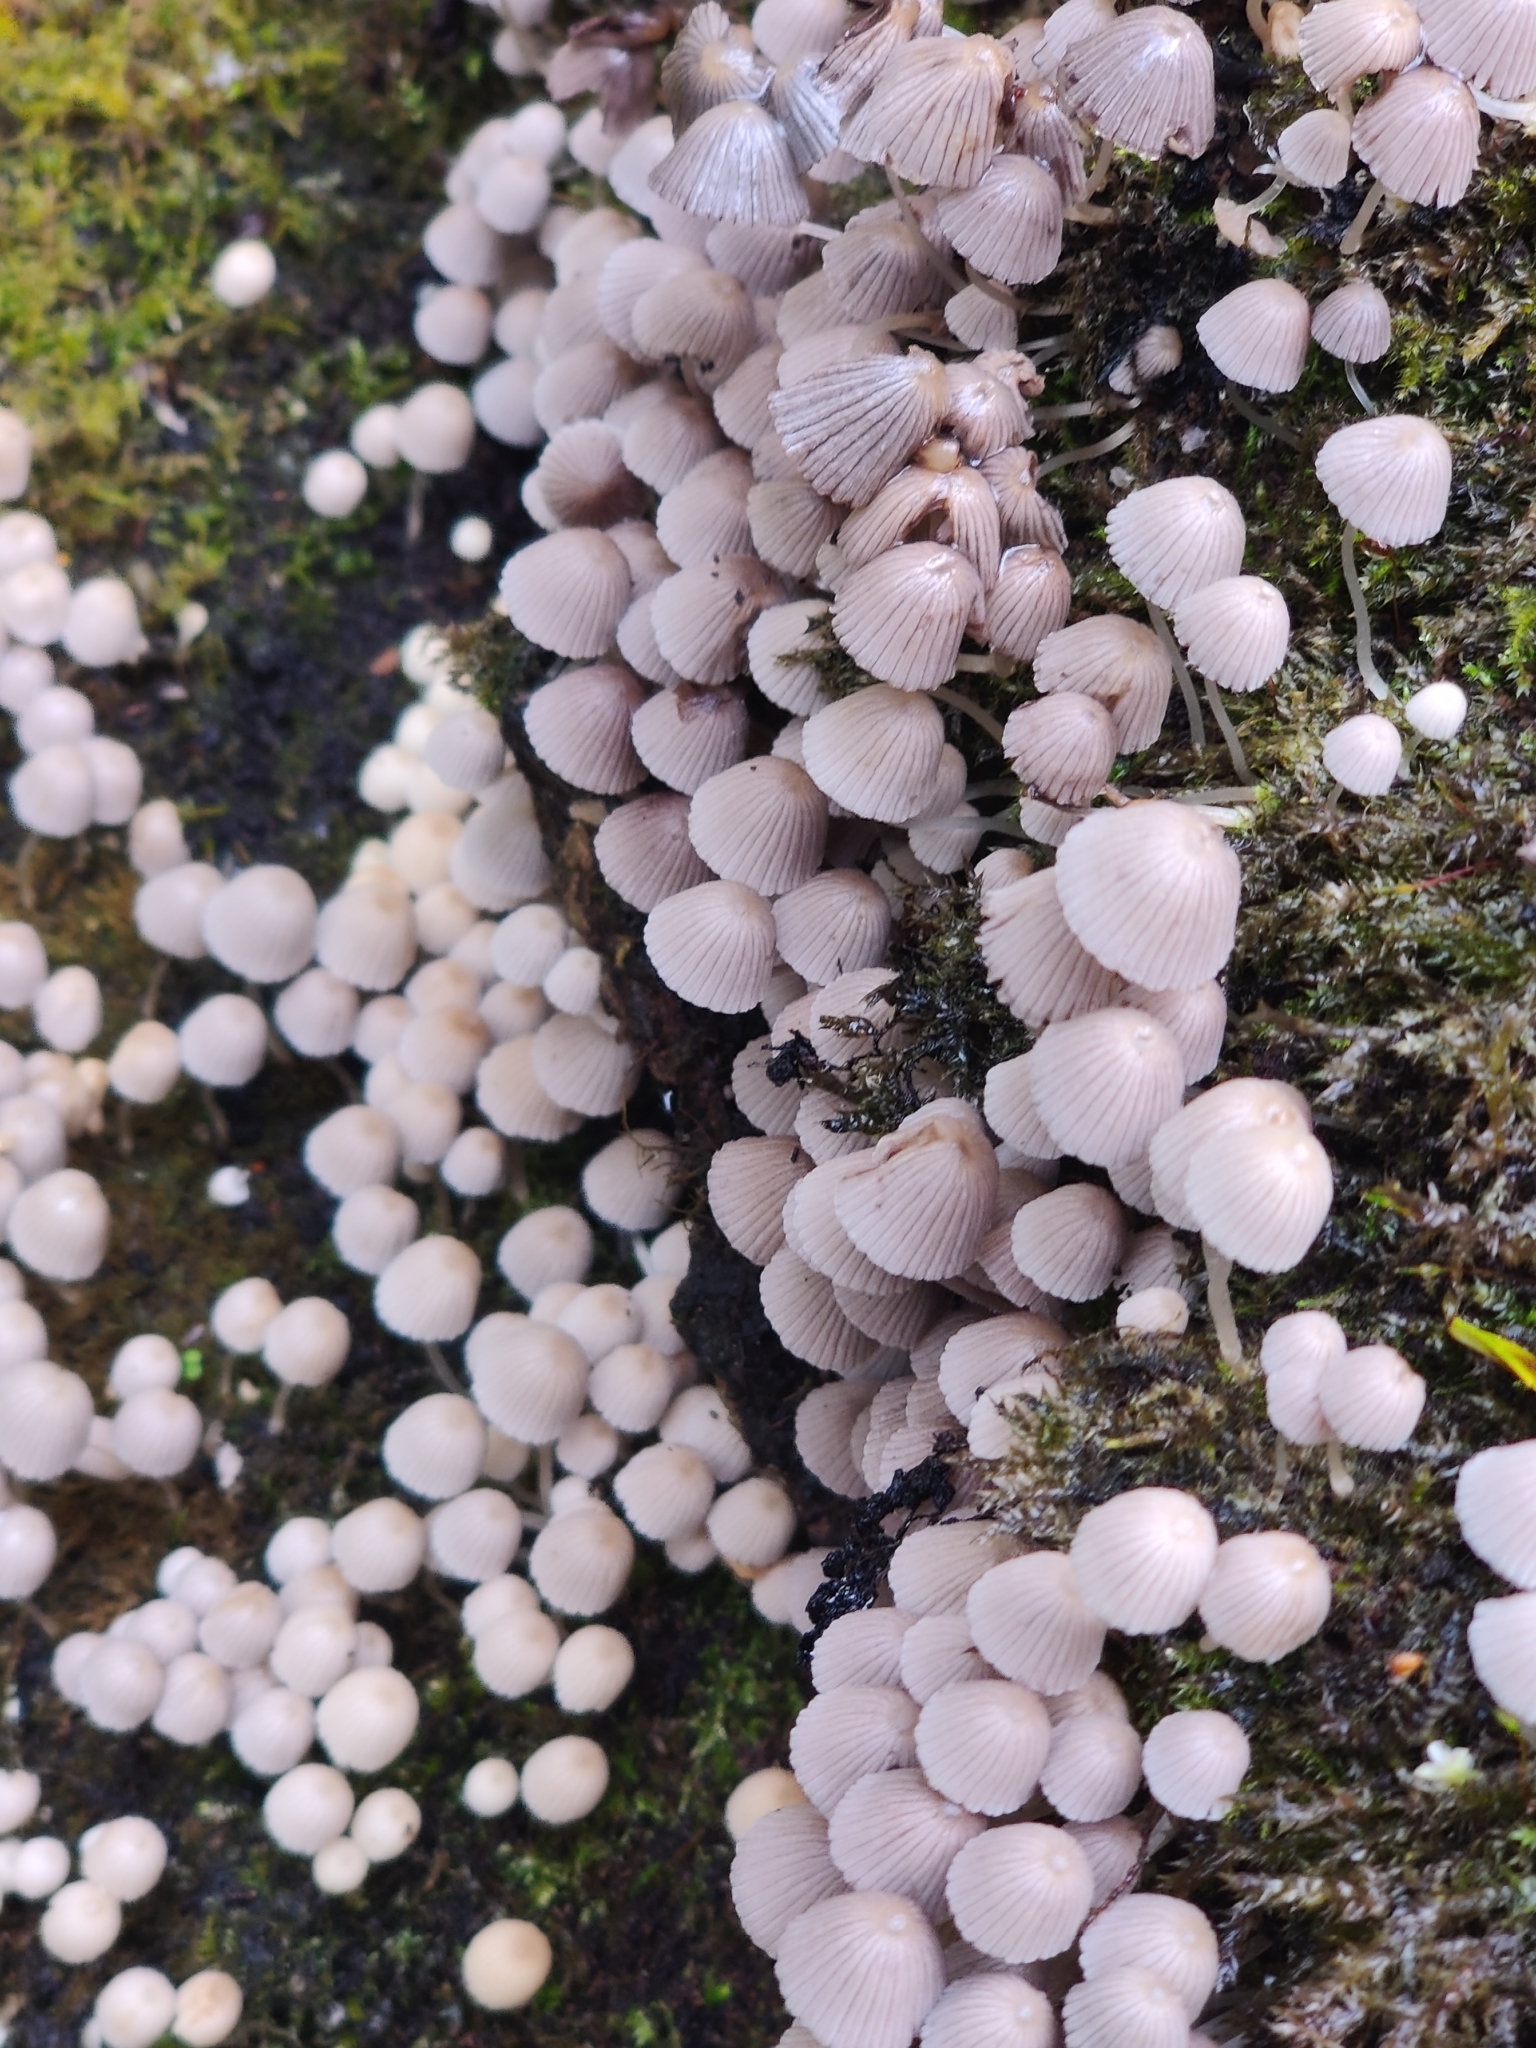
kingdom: Fungi
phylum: Basidiomycota
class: Agaricomycetes
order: Agaricales
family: Psathyrellaceae
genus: Coprinellus
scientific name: Coprinellus disseminatus
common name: Fairies' bonnets
